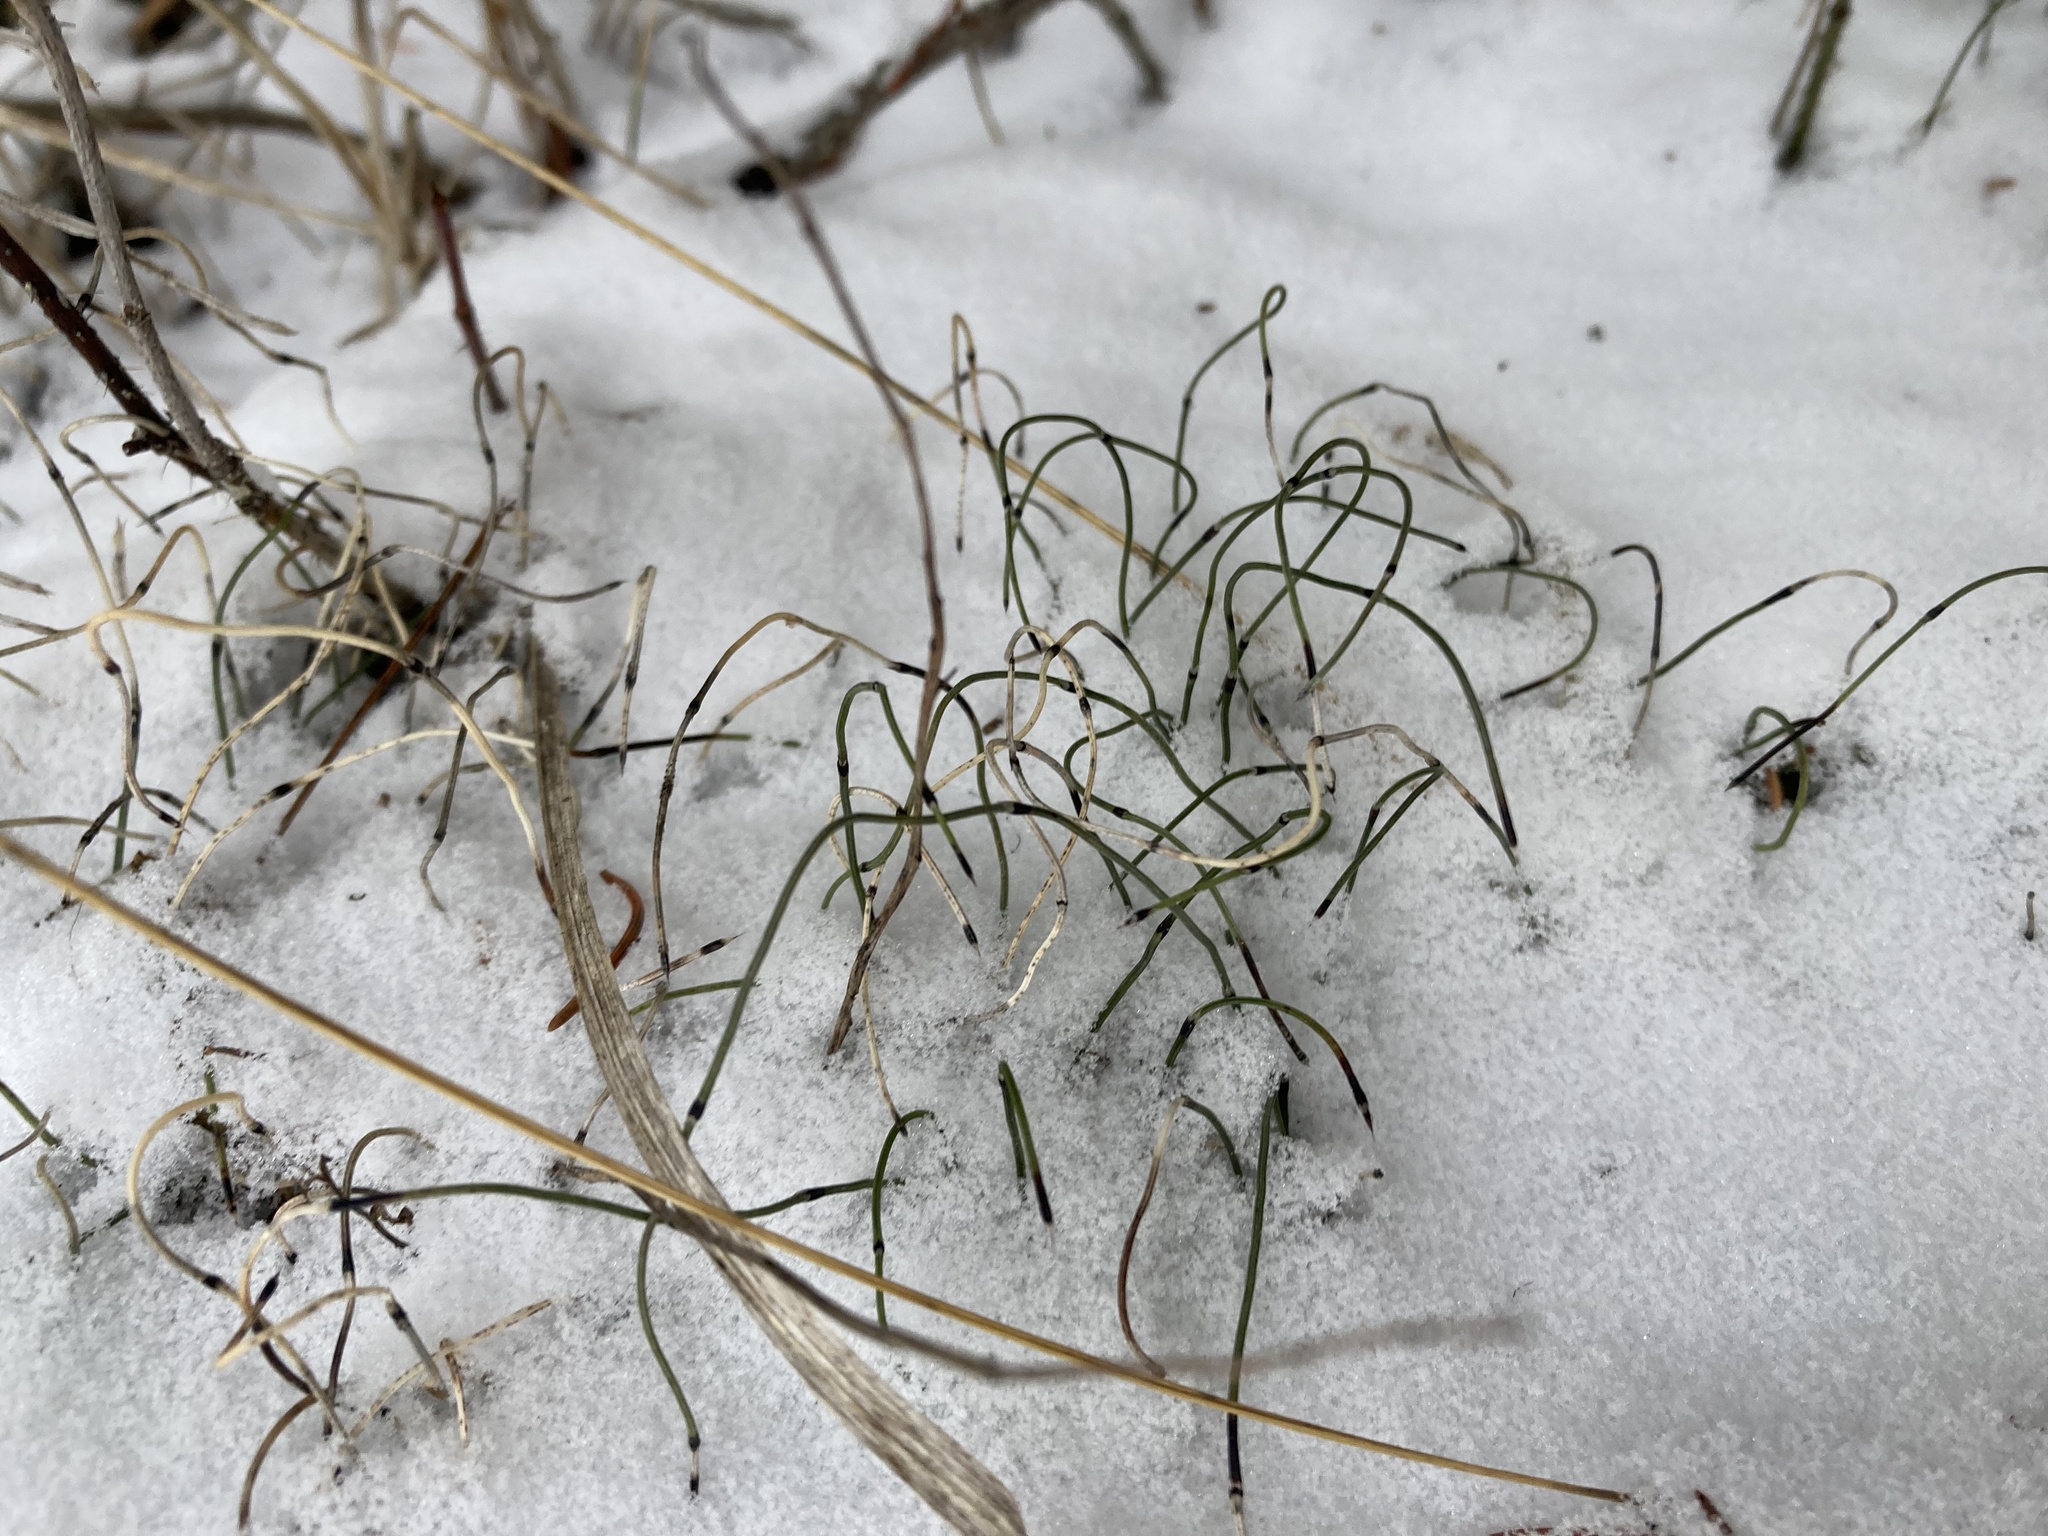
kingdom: Plantae
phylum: Tracheophyta
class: Polypodiopsida
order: Equisetales
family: Equisetaceae
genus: Equisetum
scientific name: Equisetum scirpoides
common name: Delicate horsetail
